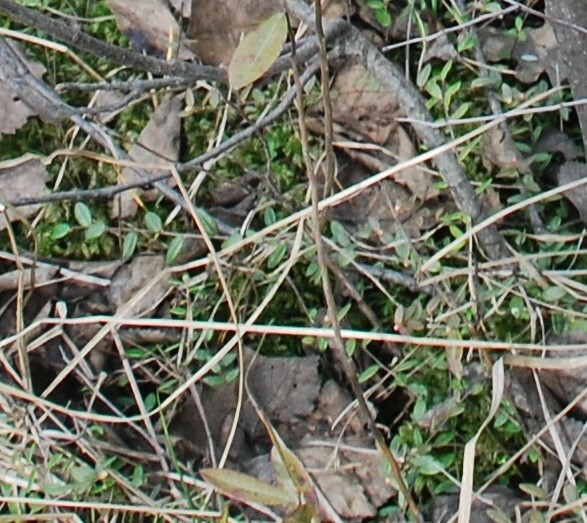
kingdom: Plantae
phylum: Tracheophyta
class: Magnoliopsida
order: Ericales
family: Ericaceae
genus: Vaccinium
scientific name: Vaccinium oxycoccos
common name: Cranberry
